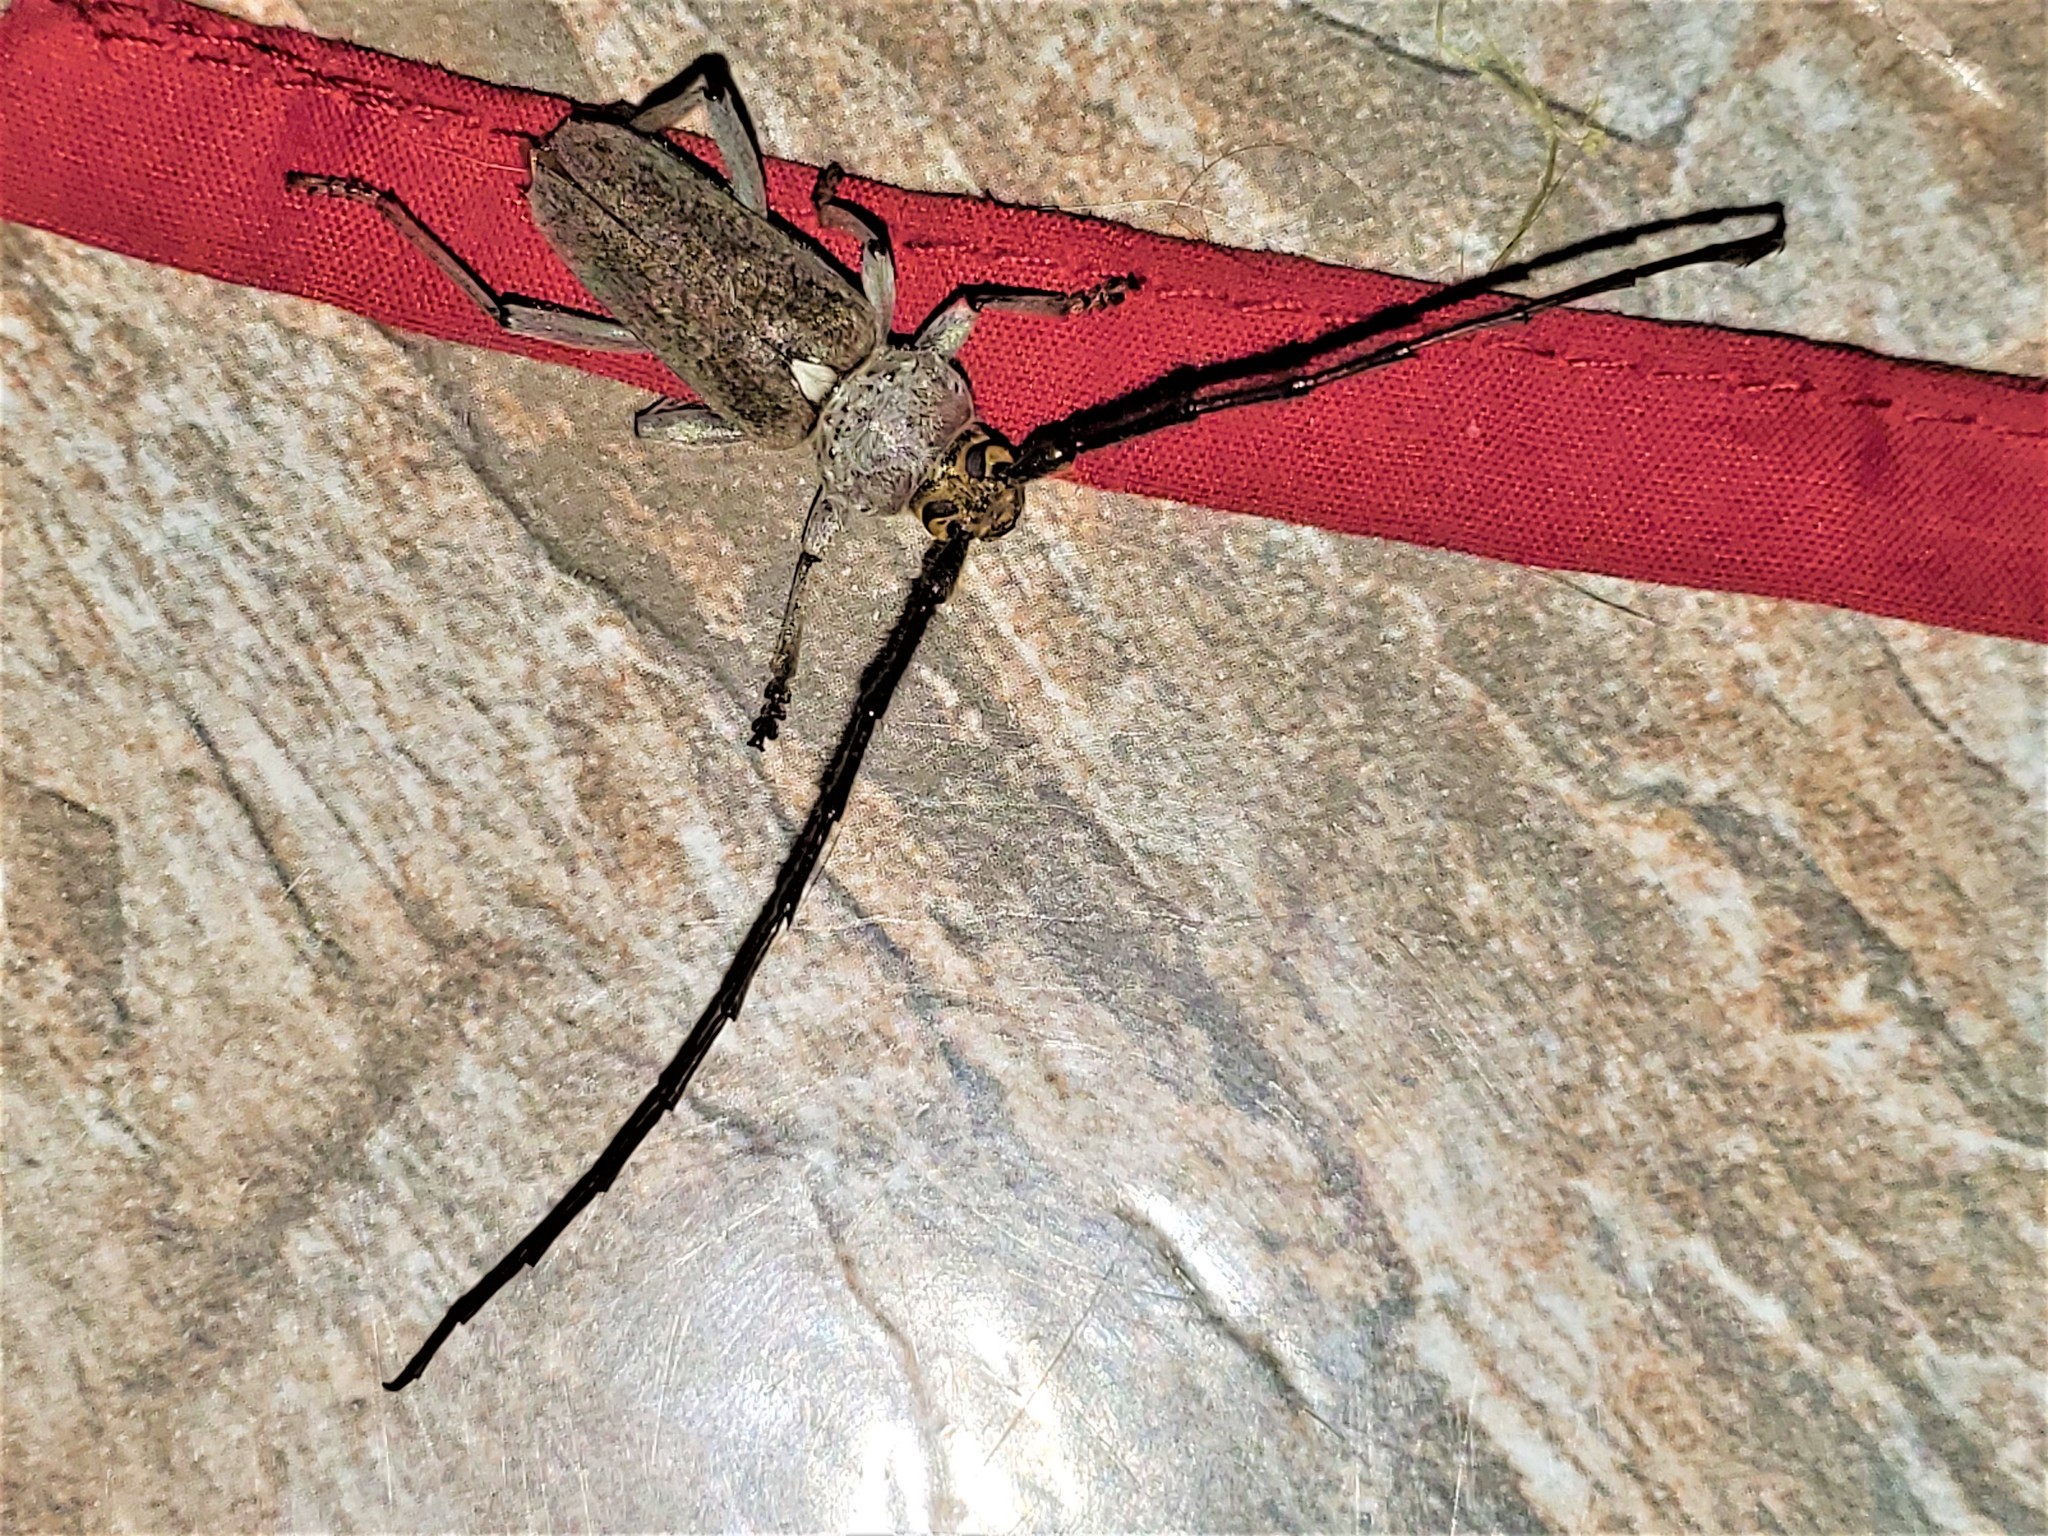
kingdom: Animalia
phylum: Arthropoda
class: Insecta
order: Coleoptera
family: Cerambycidae
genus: Gnaphalodes
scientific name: Gnaphalodes trachyderoides
